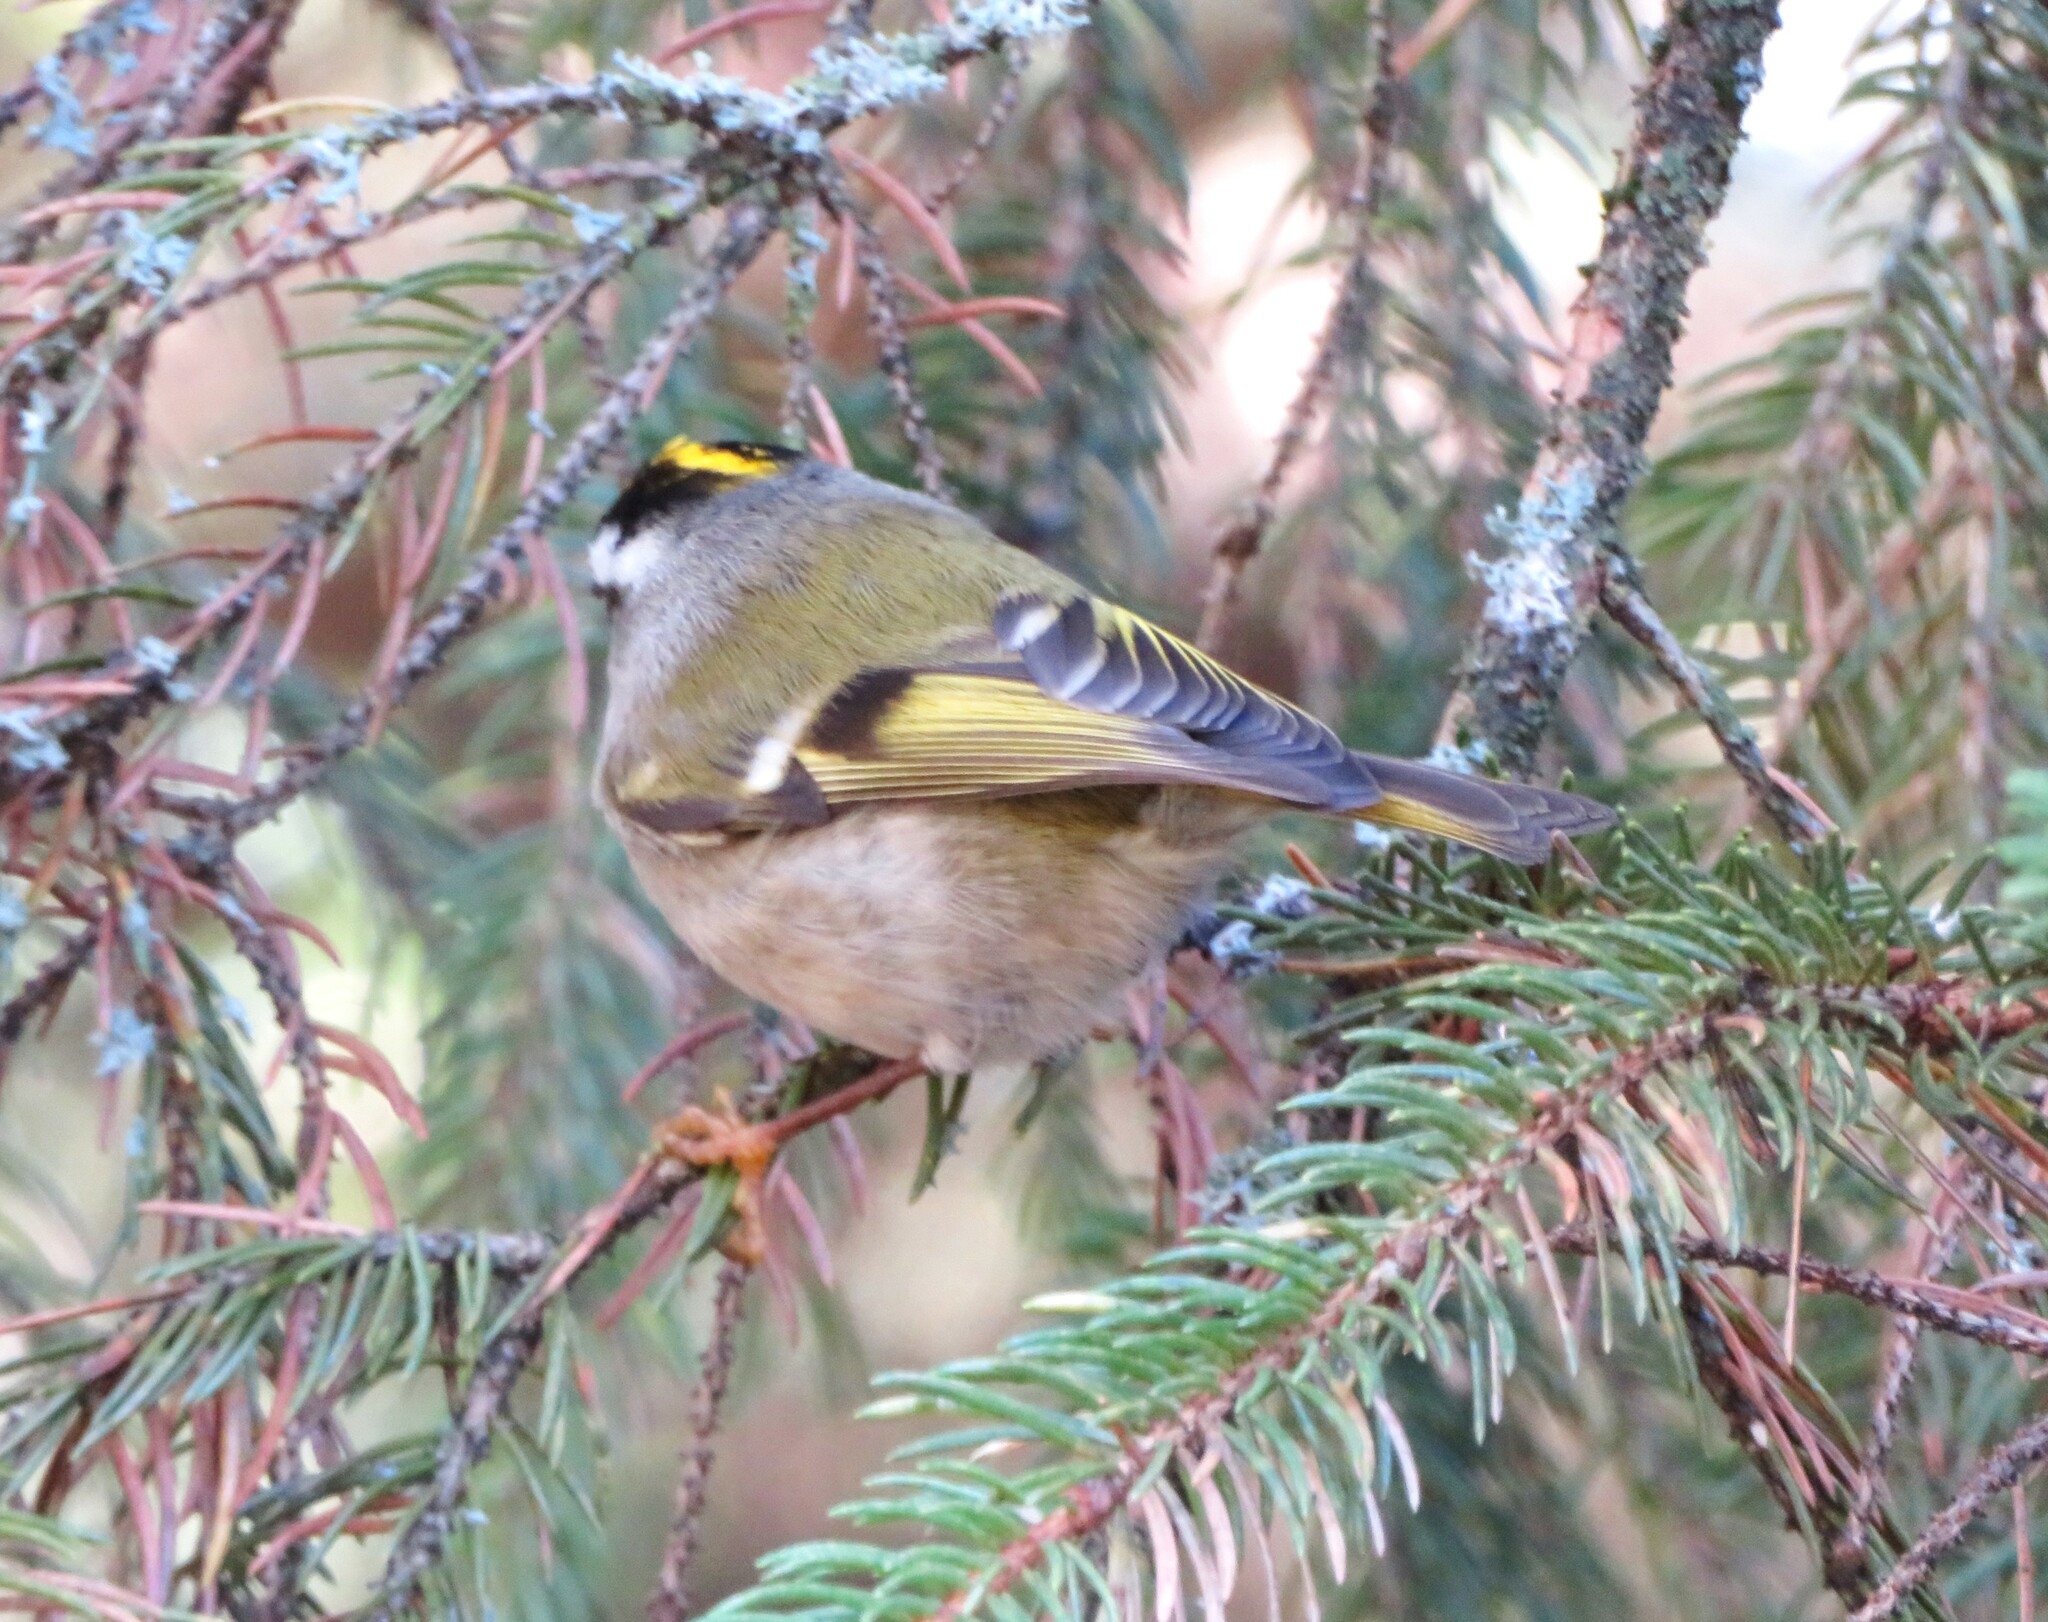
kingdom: Animalia
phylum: Chordata
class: Aves
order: Passeriformes
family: Regulidae
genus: Regulus
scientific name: Regulus satrapa
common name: Golden-crowned kinglet
